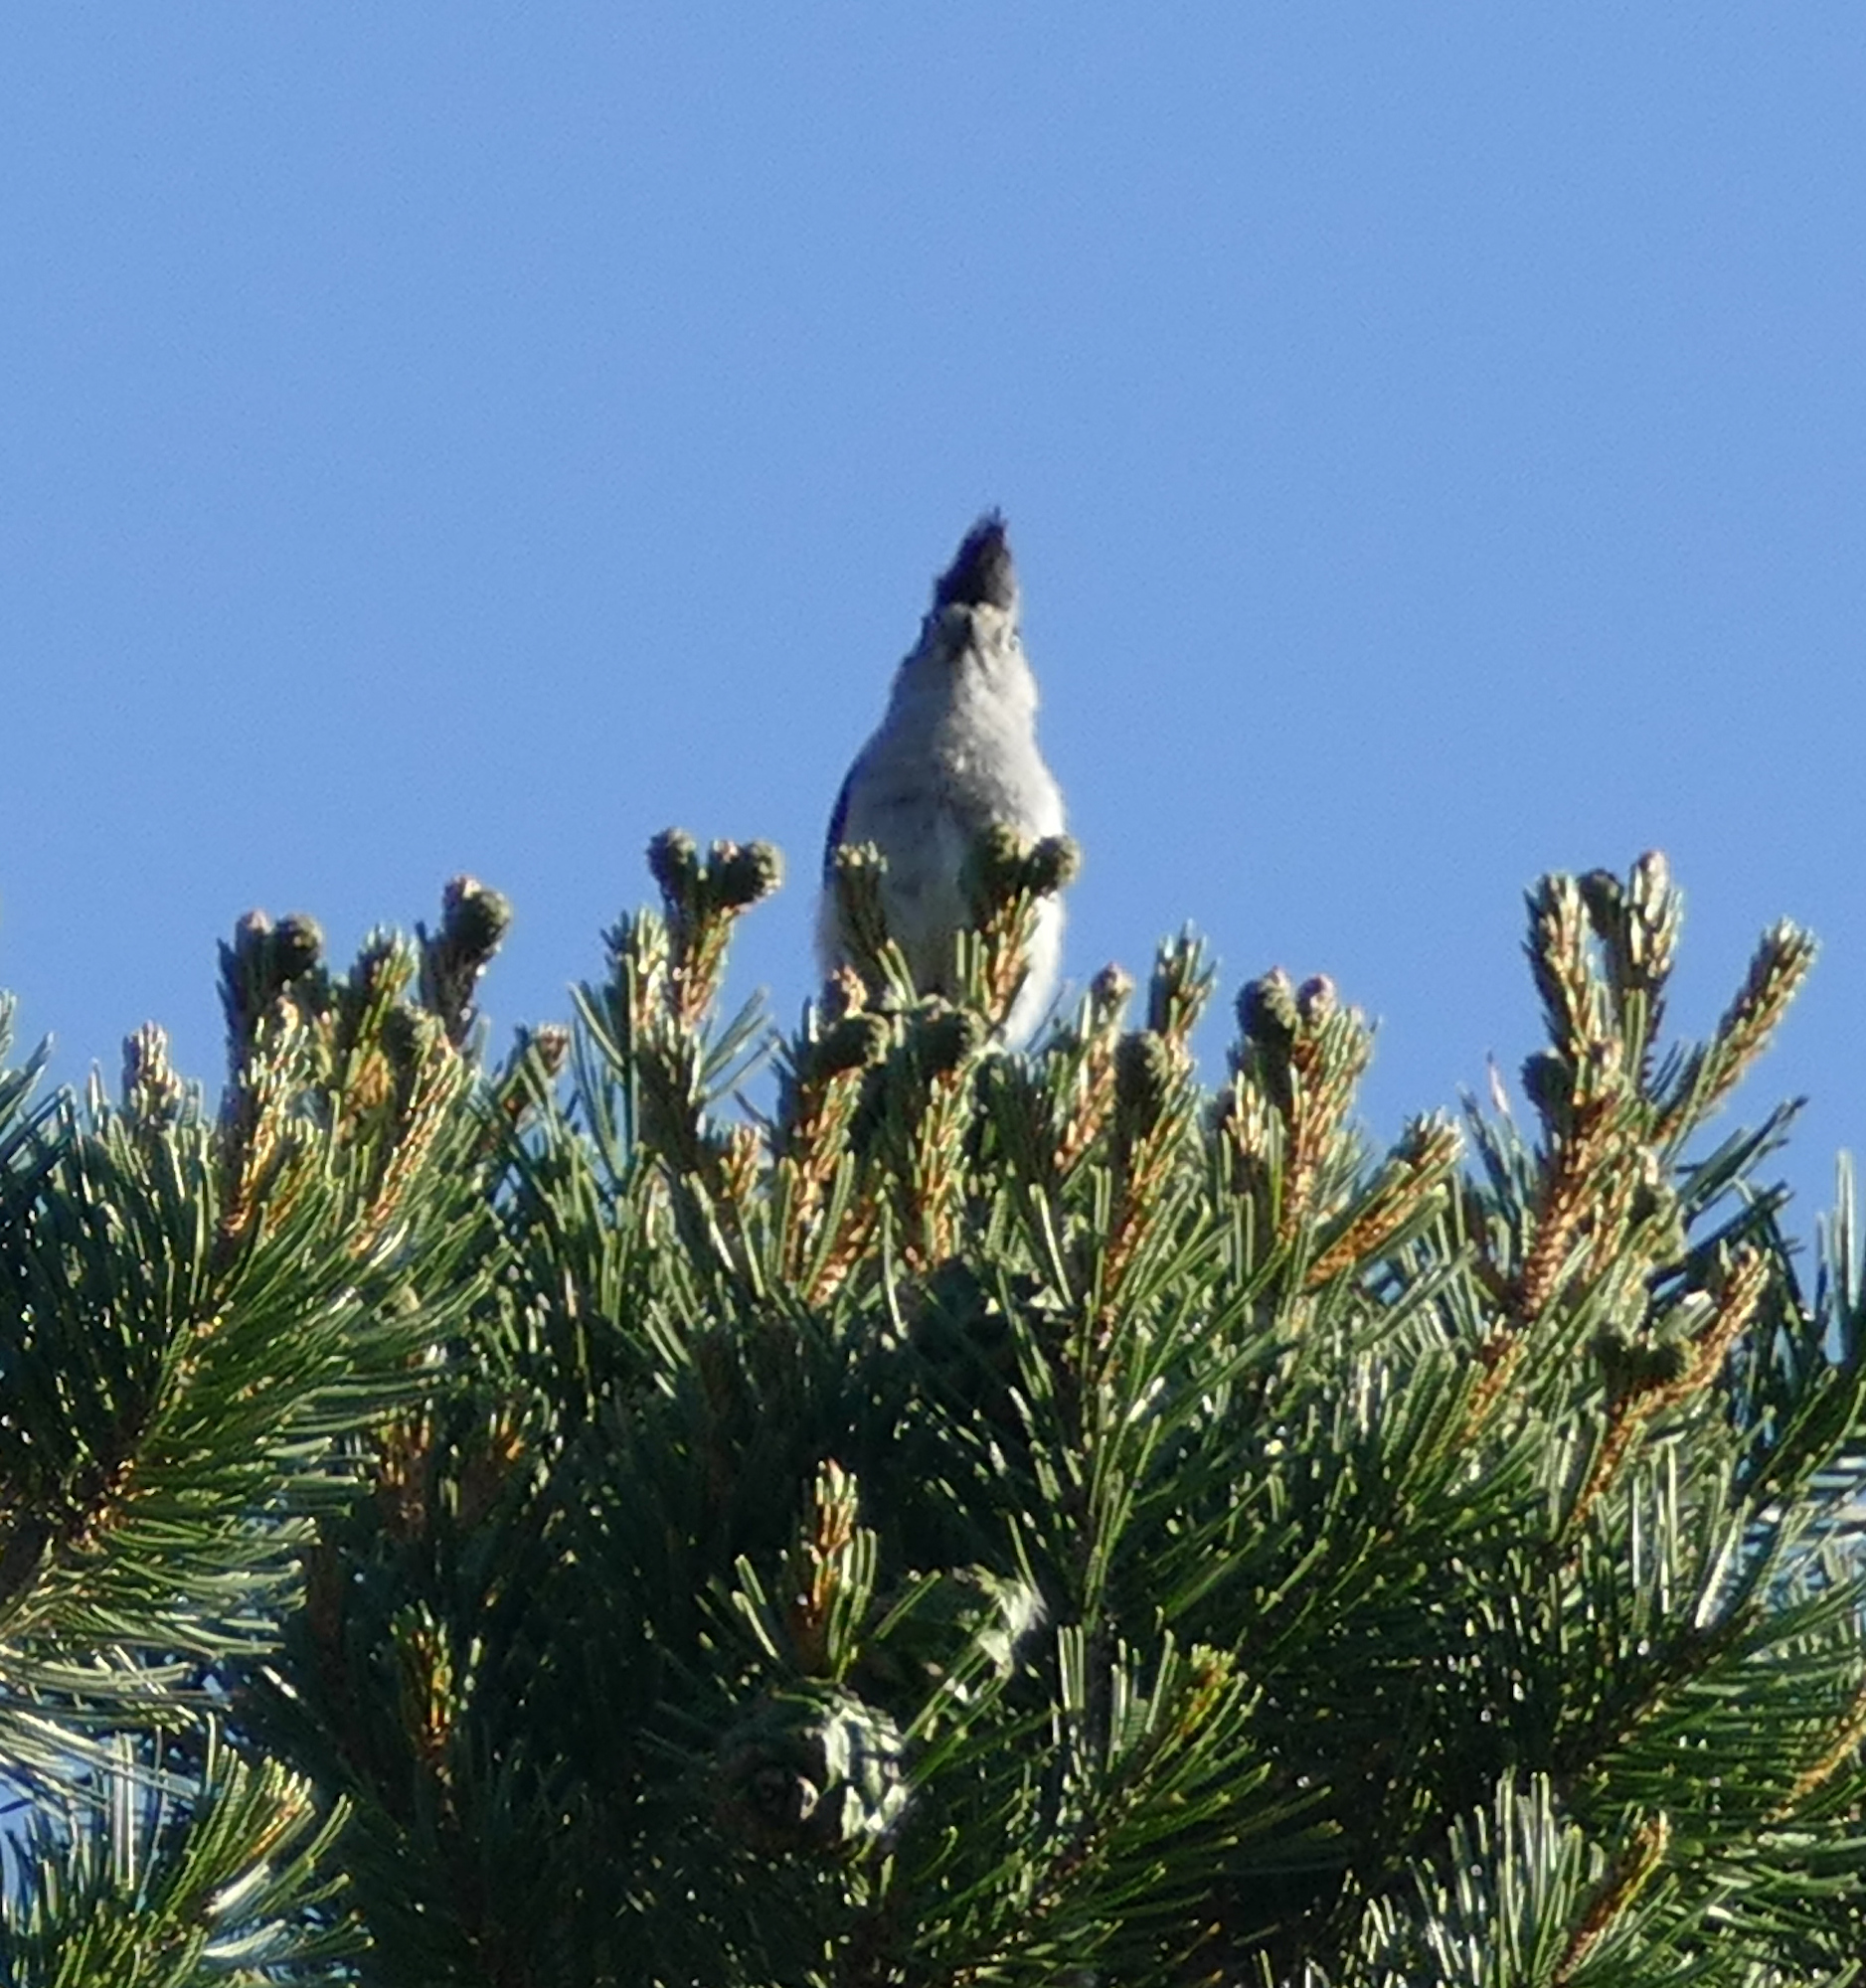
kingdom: Animalia
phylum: Chordata
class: Aves
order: Passeriformes
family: Paridae
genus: Baeolophus
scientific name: Baeolophus atricristatus
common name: Black-crested titmouse
